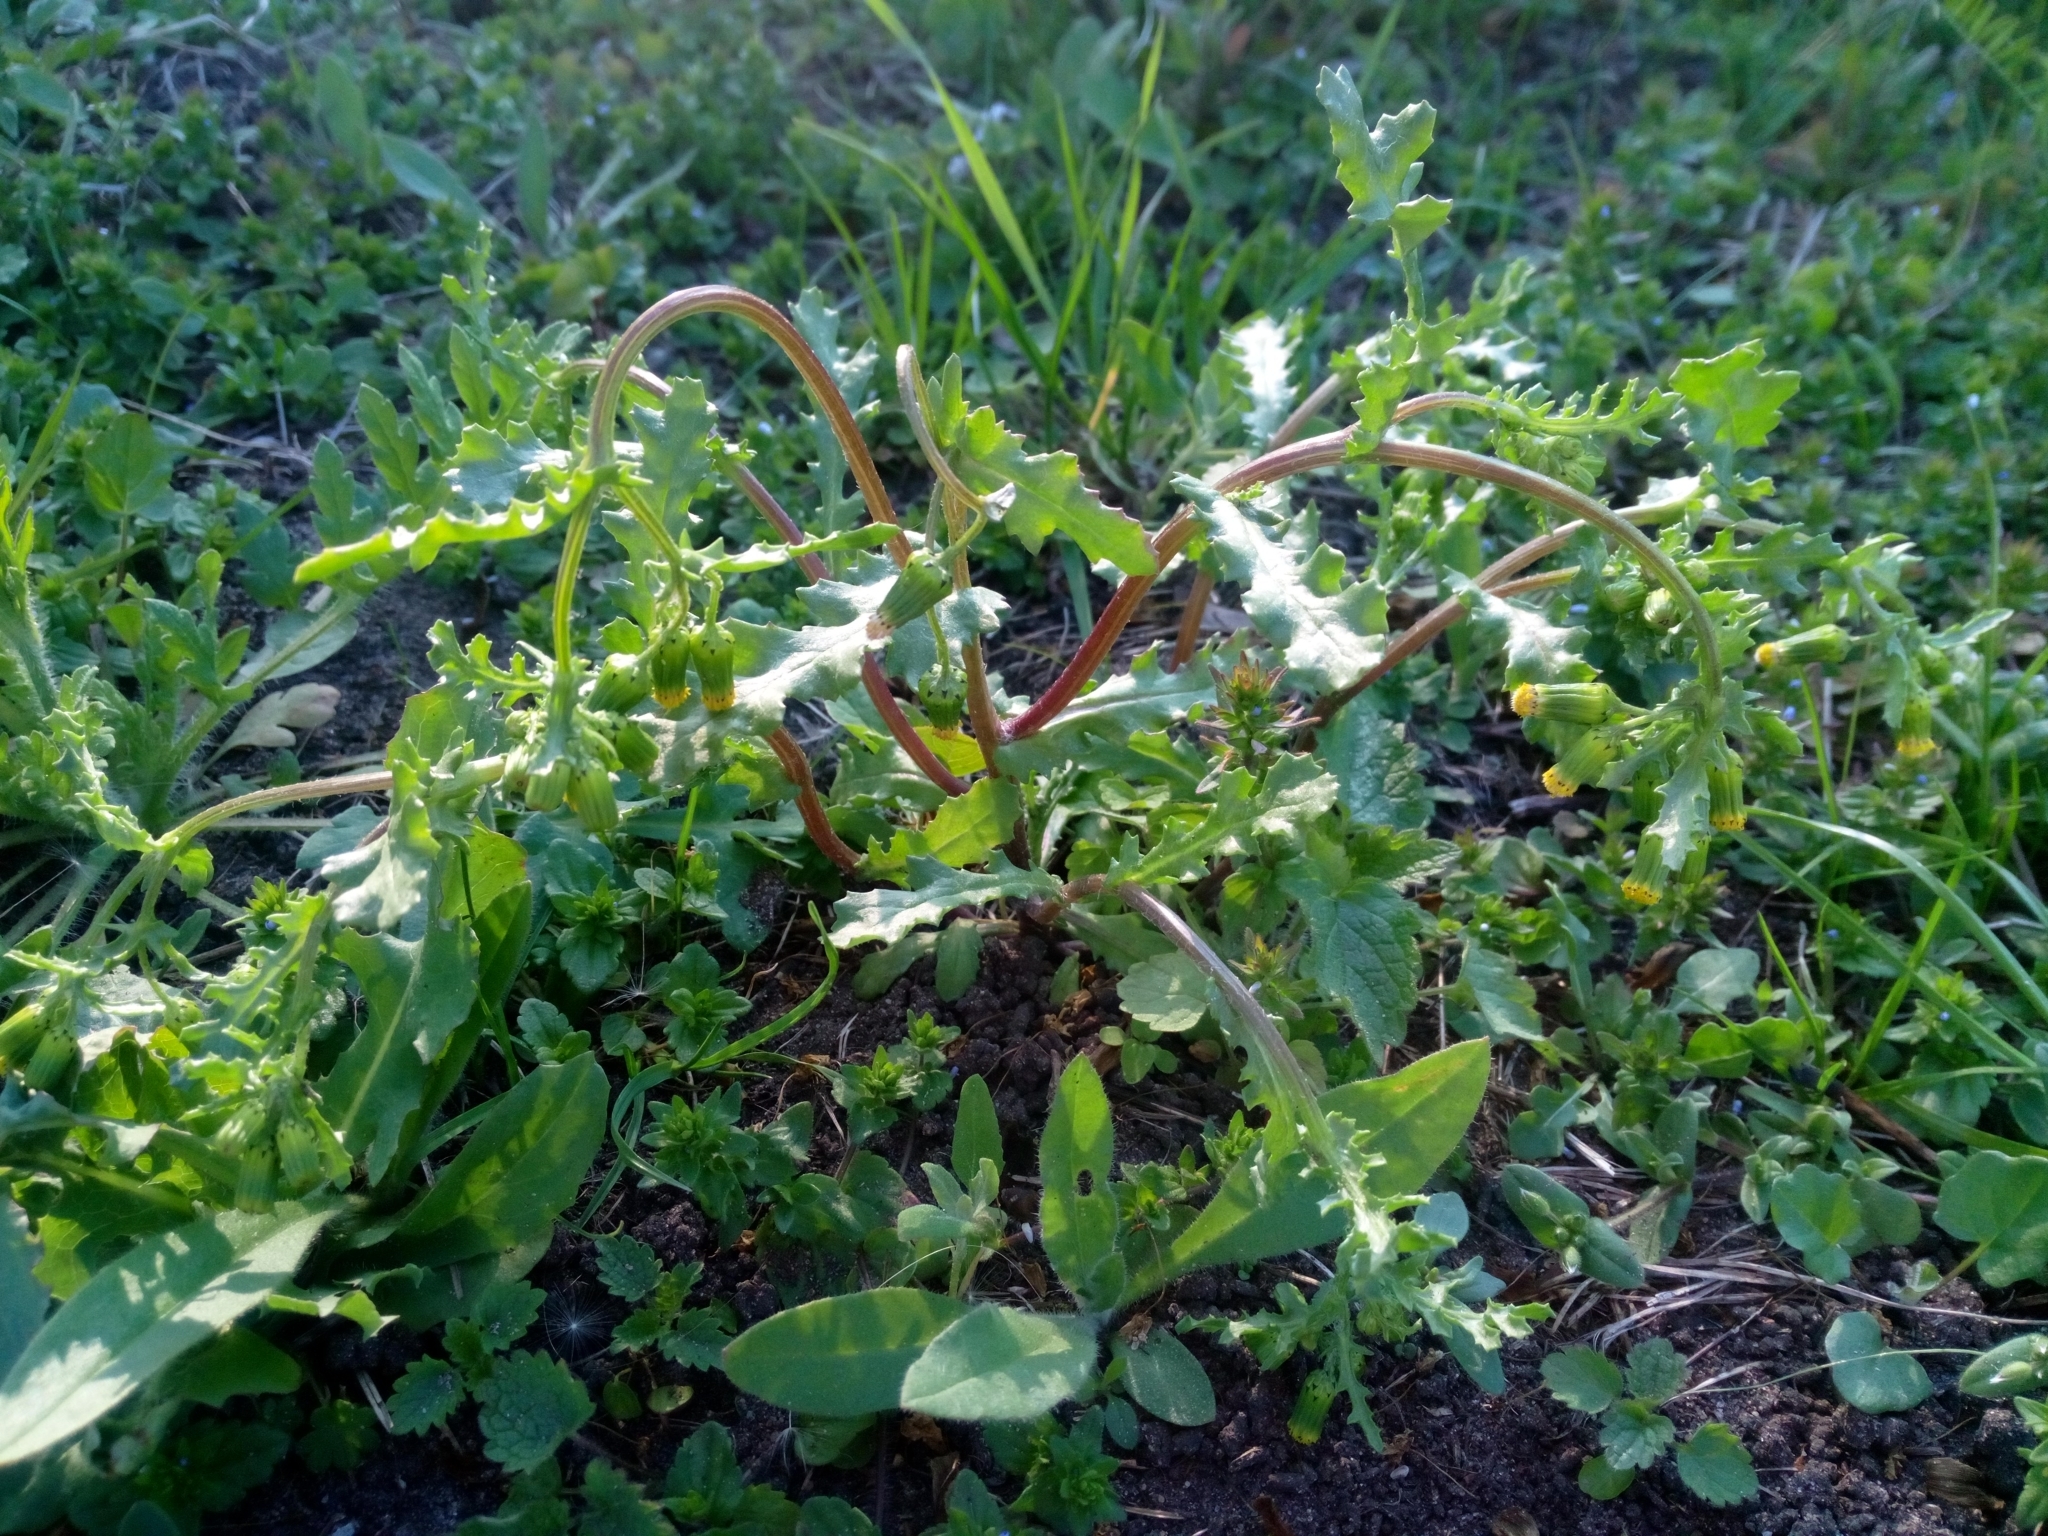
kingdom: Plantae
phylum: Tracheophyta
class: Magnoliopsida
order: Asterales
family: Asteraceae
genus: Senecio
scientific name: Senecio vulgaris
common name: Old-man-in-the-spring
